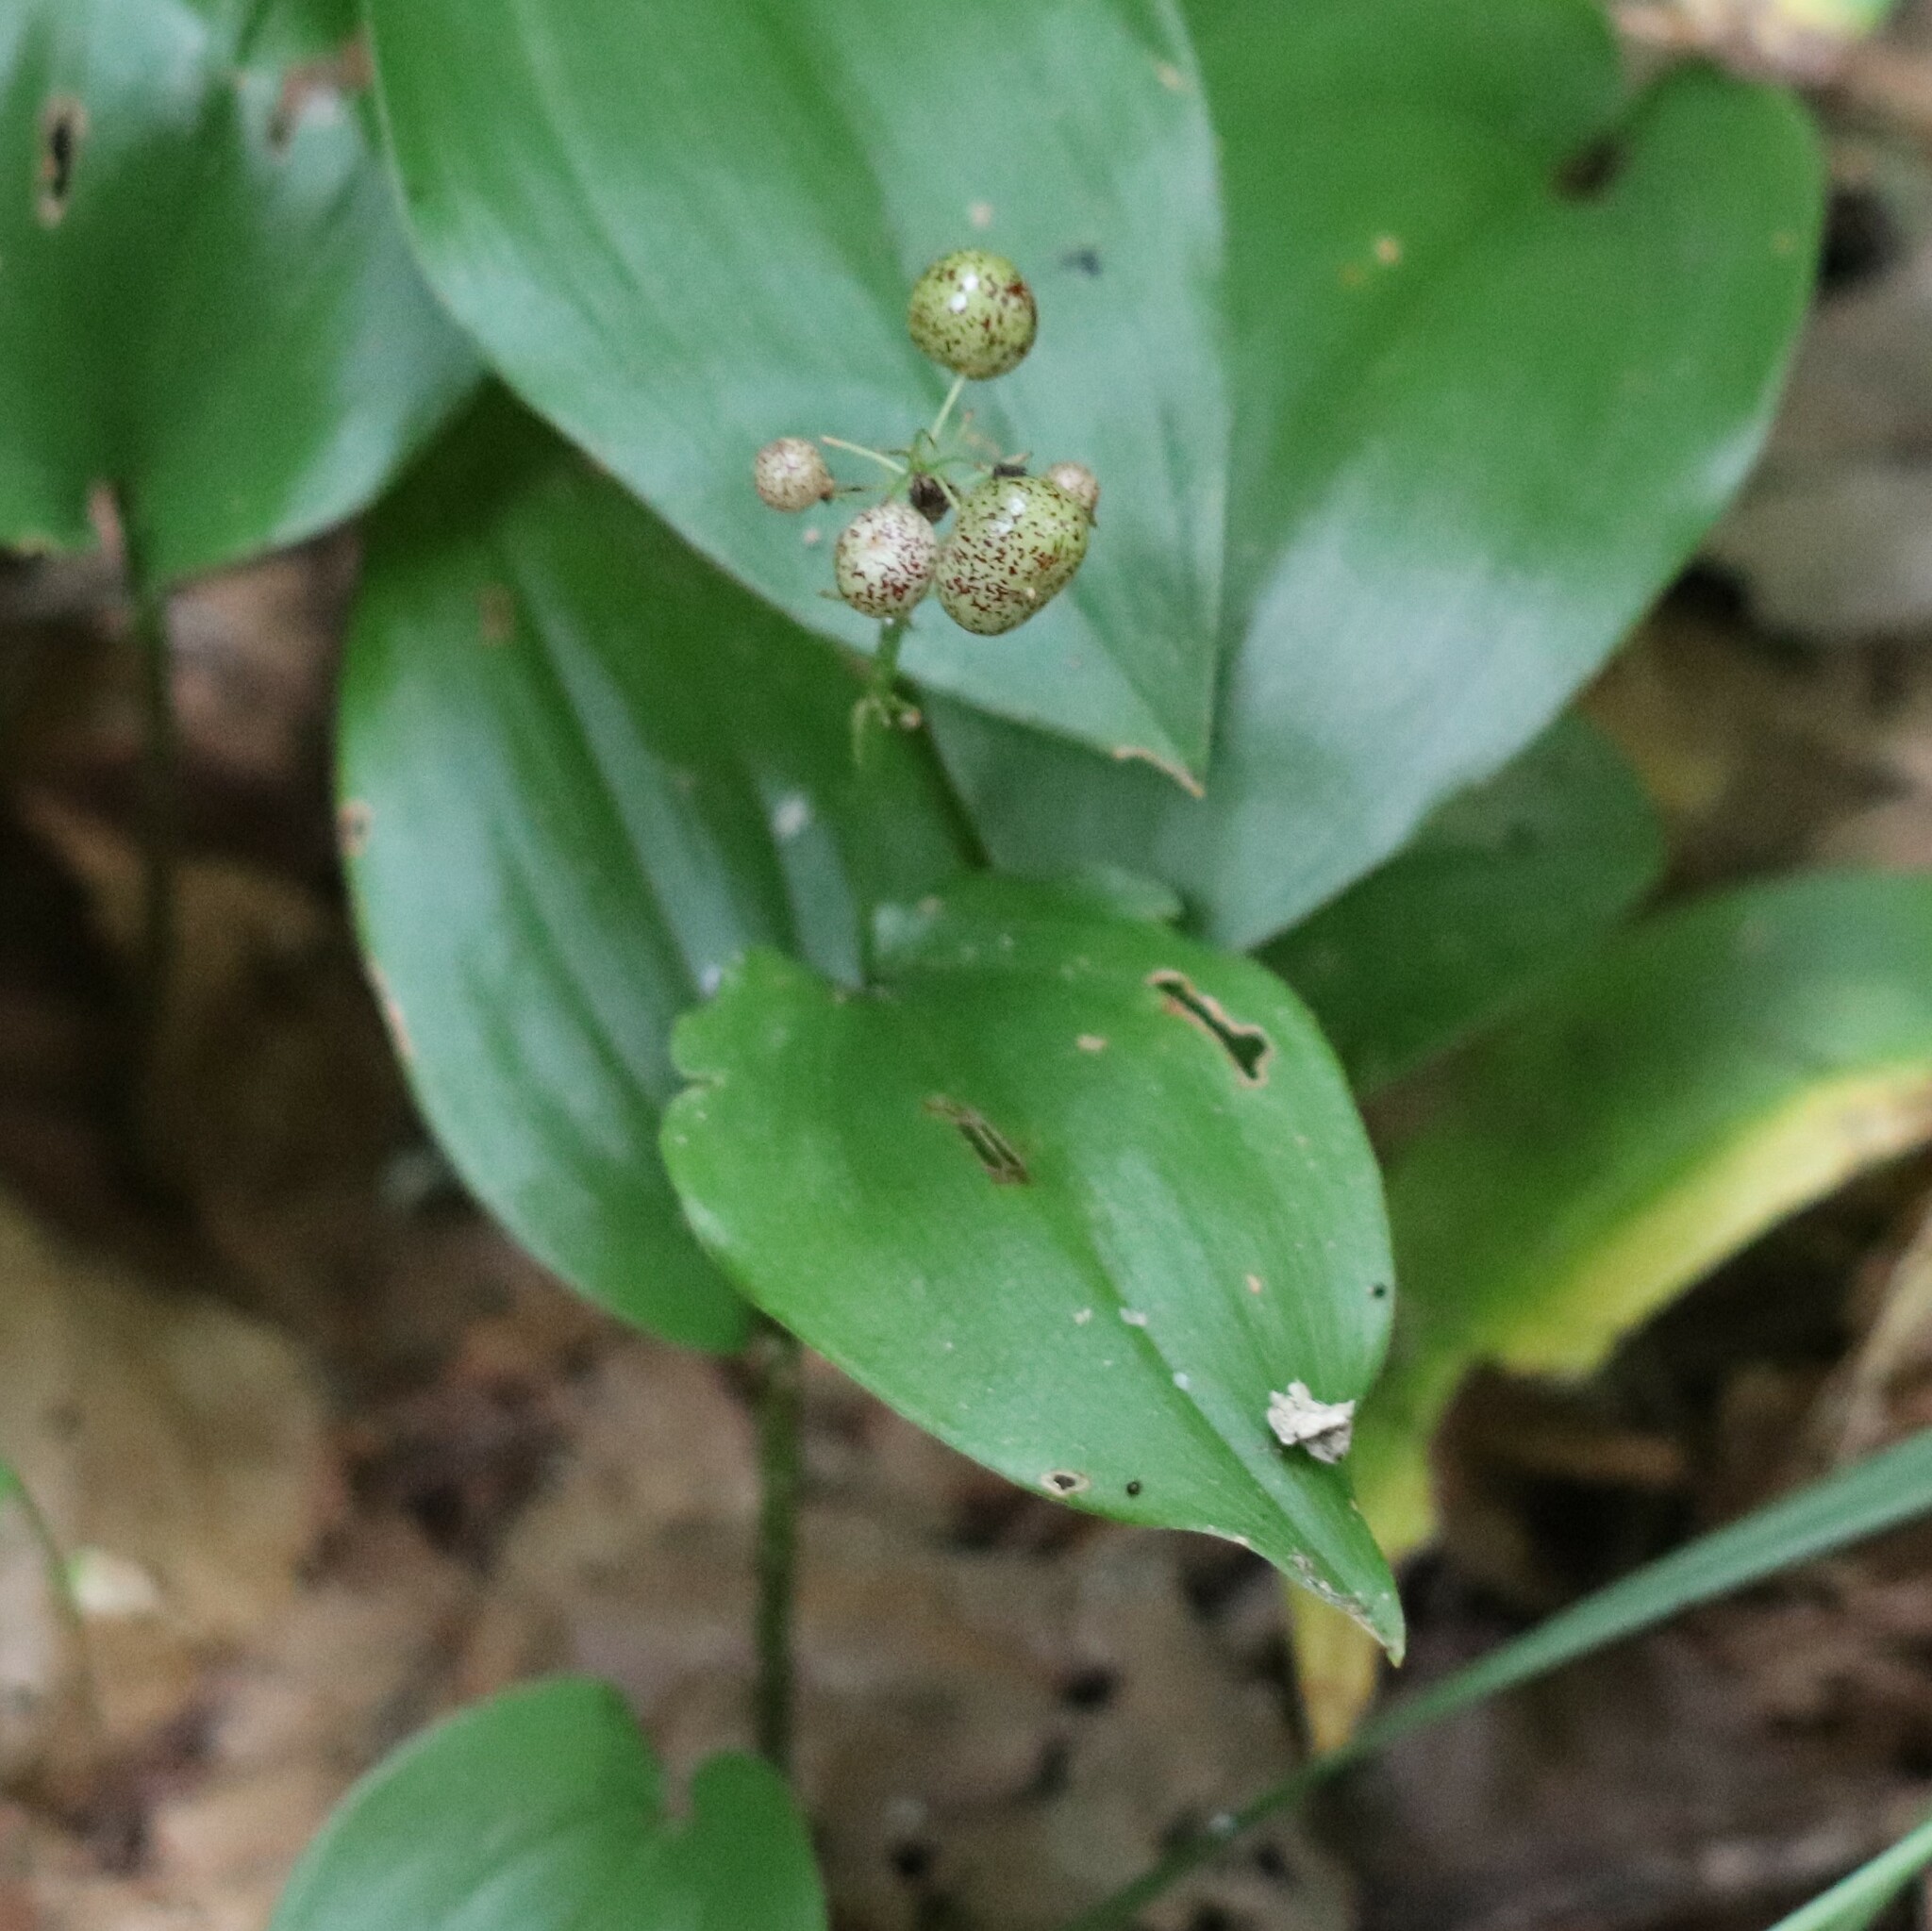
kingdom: Plantae
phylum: Tracheophyta
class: Liliopsida
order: Asparagales
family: Asparagaceae
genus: Maianthemum
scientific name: Maianthemum canadense
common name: False lily-of-the-valley
